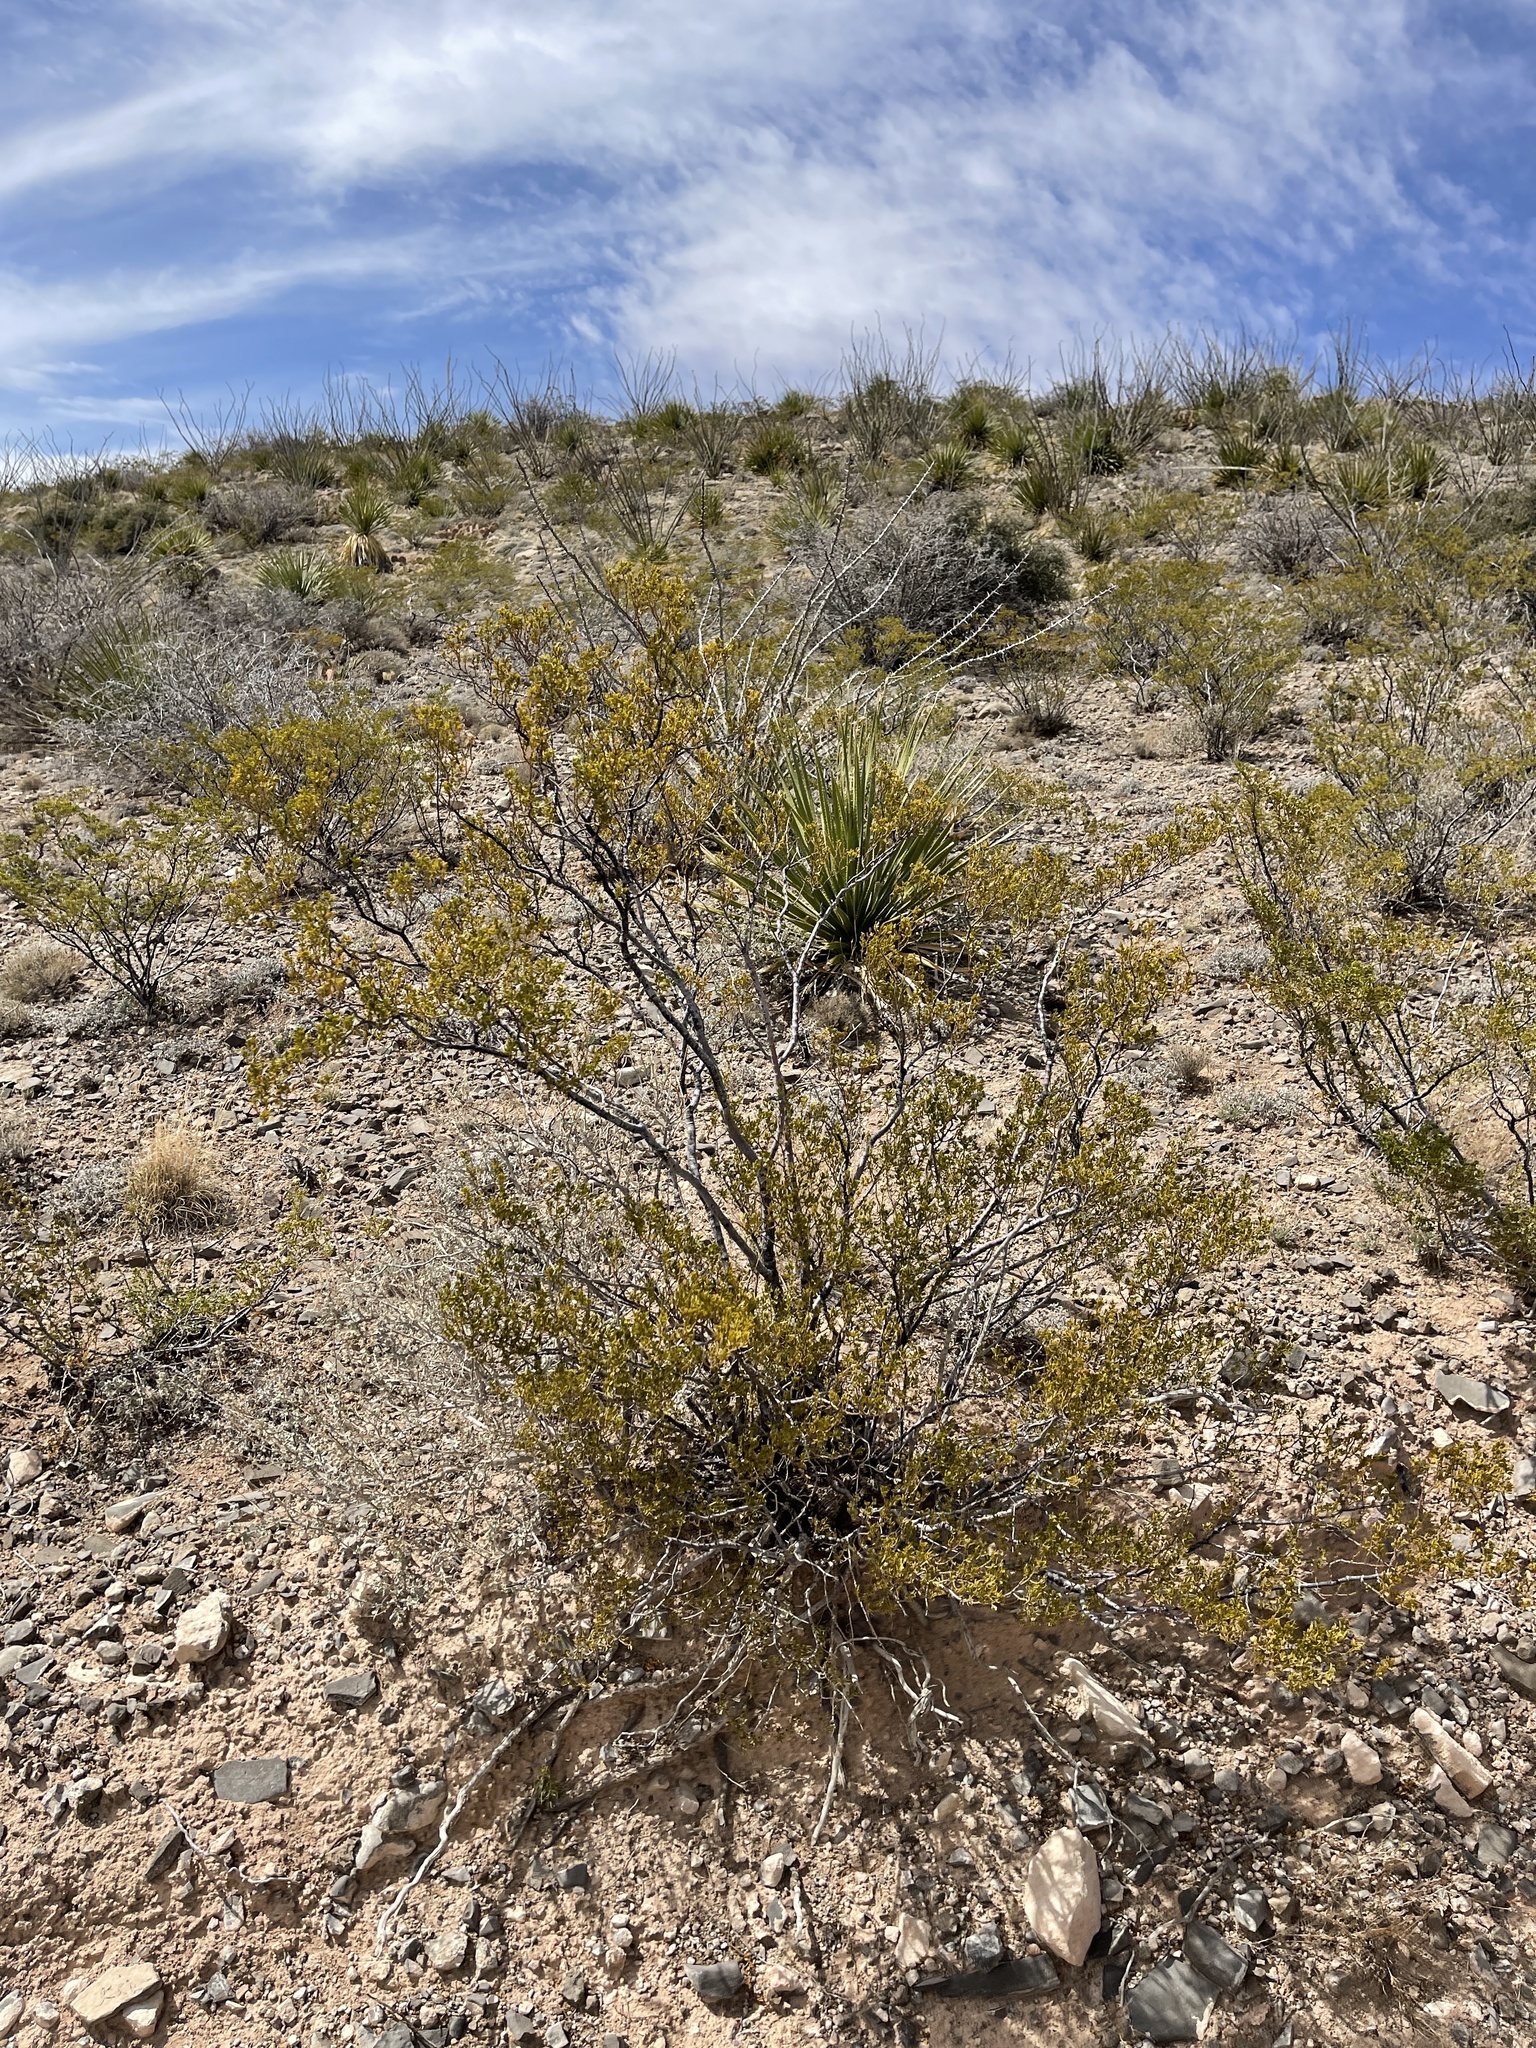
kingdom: Plantae
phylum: Tracheophyta
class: Magnoliopsida
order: Zygophyllales
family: Zygophyllaceae
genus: Larrea
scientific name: Larrea tridentata
